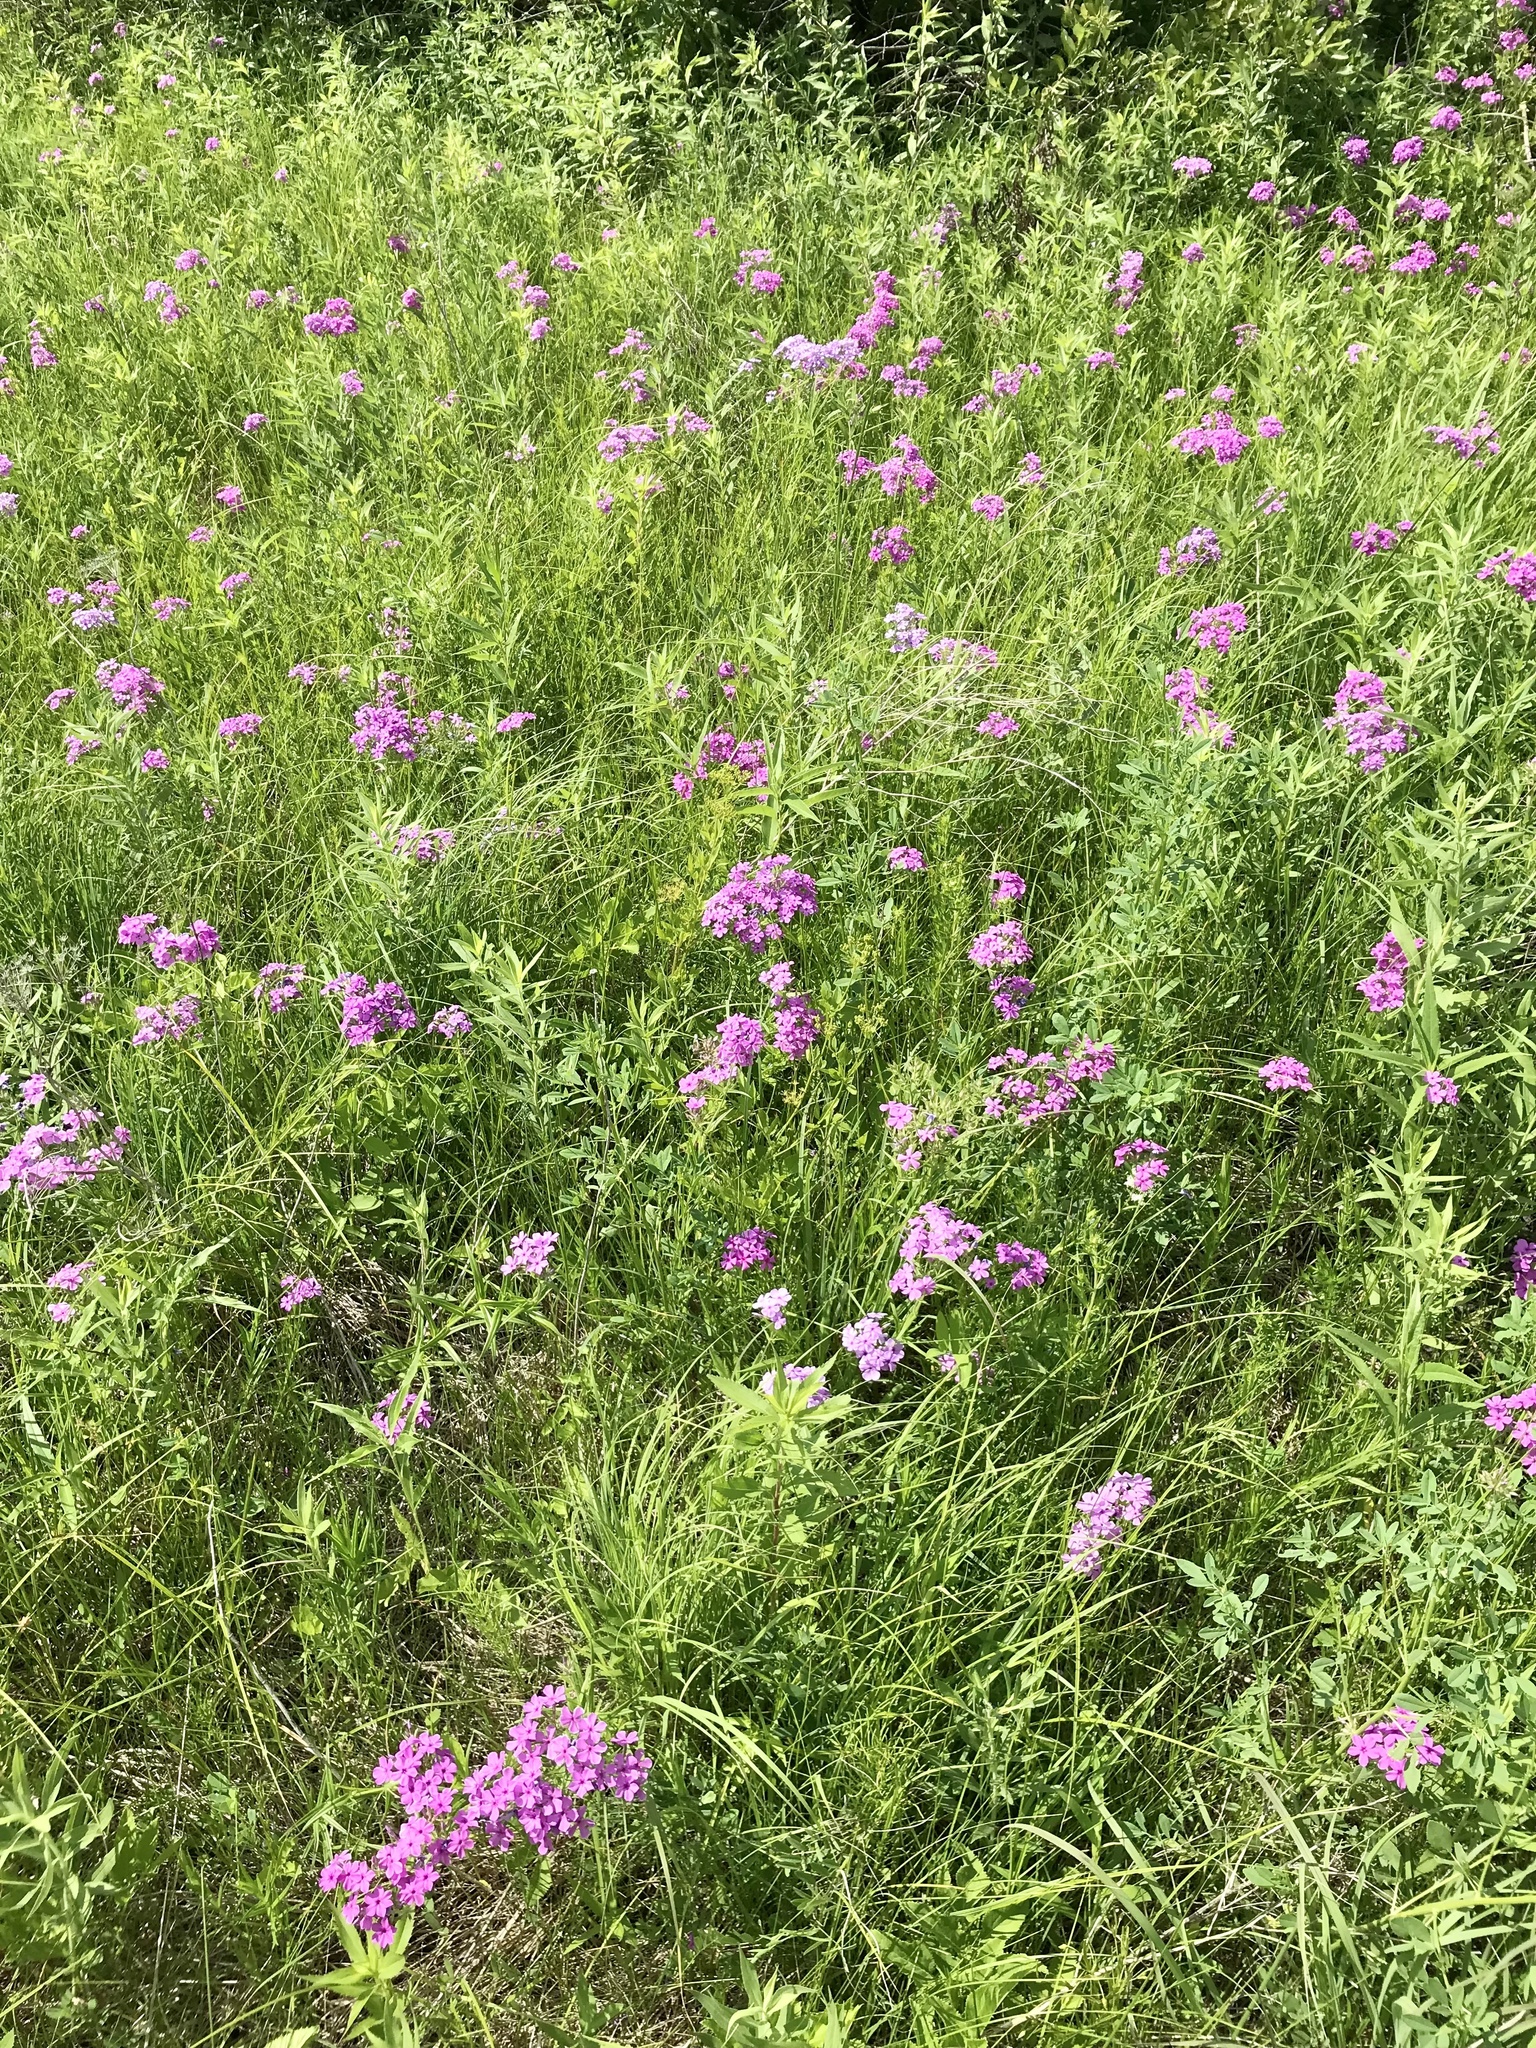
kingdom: Plantae
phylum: Tracheophyta
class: Magnoliopsida
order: Ericales
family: Polemoniaceae
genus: Phlox
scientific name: Phlox pilosa
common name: Prairie phlox
